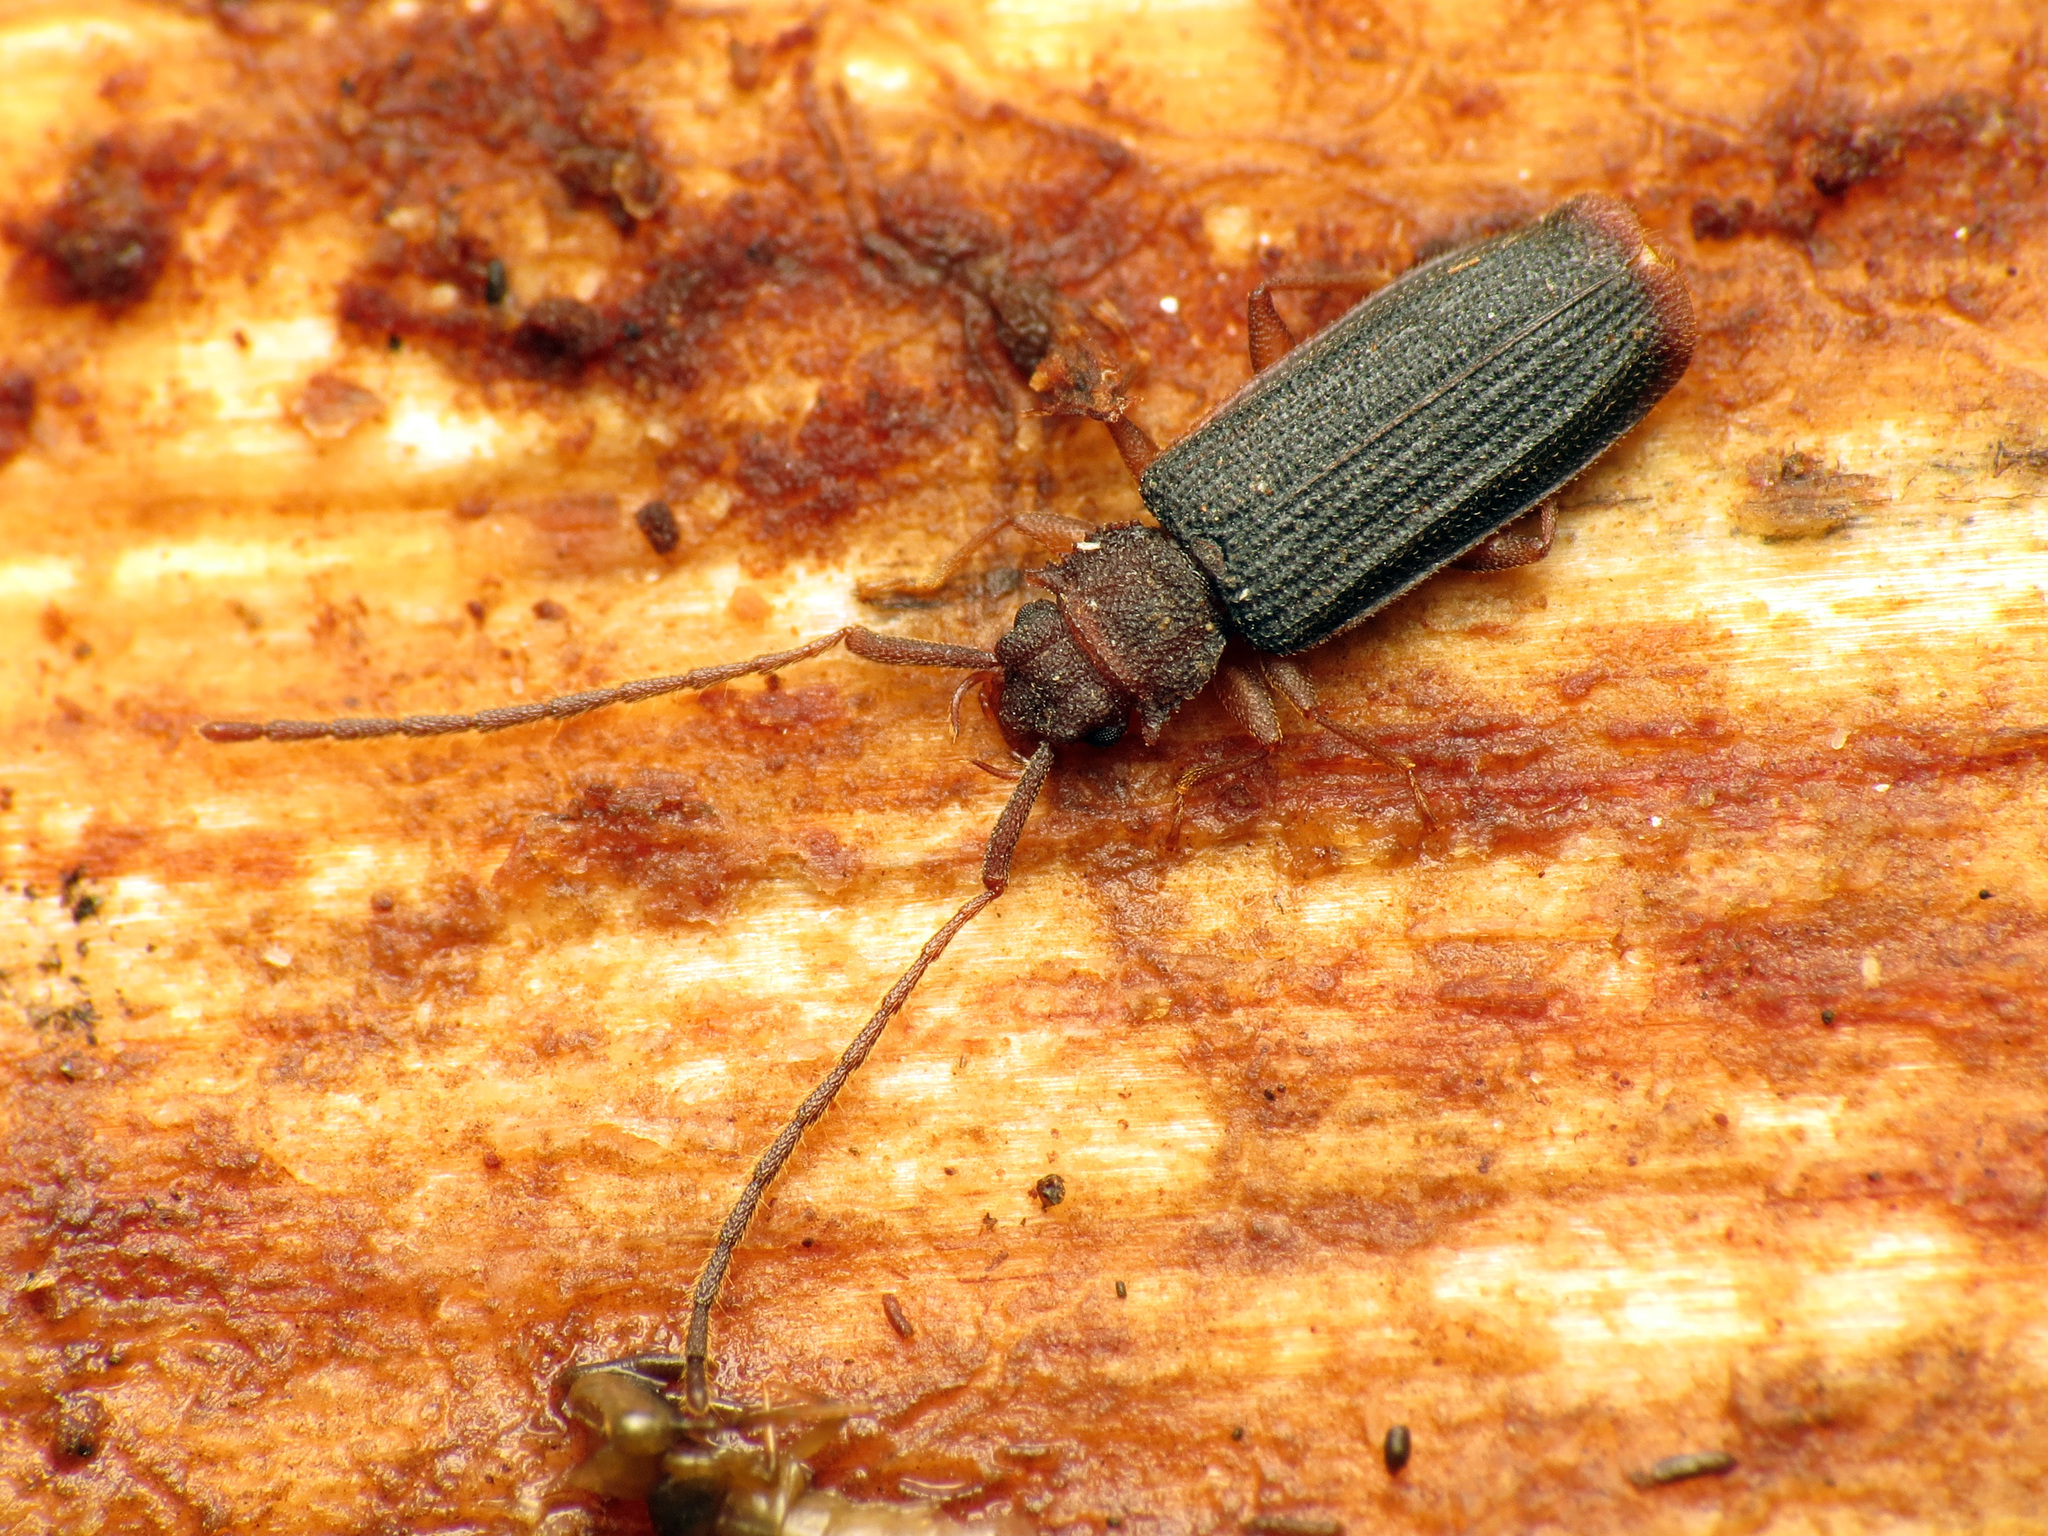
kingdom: Animalia
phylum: Arthropoda
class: Insecta
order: Coleoptera
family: Silvanidae
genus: Uleiota
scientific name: Uleiota dubia
